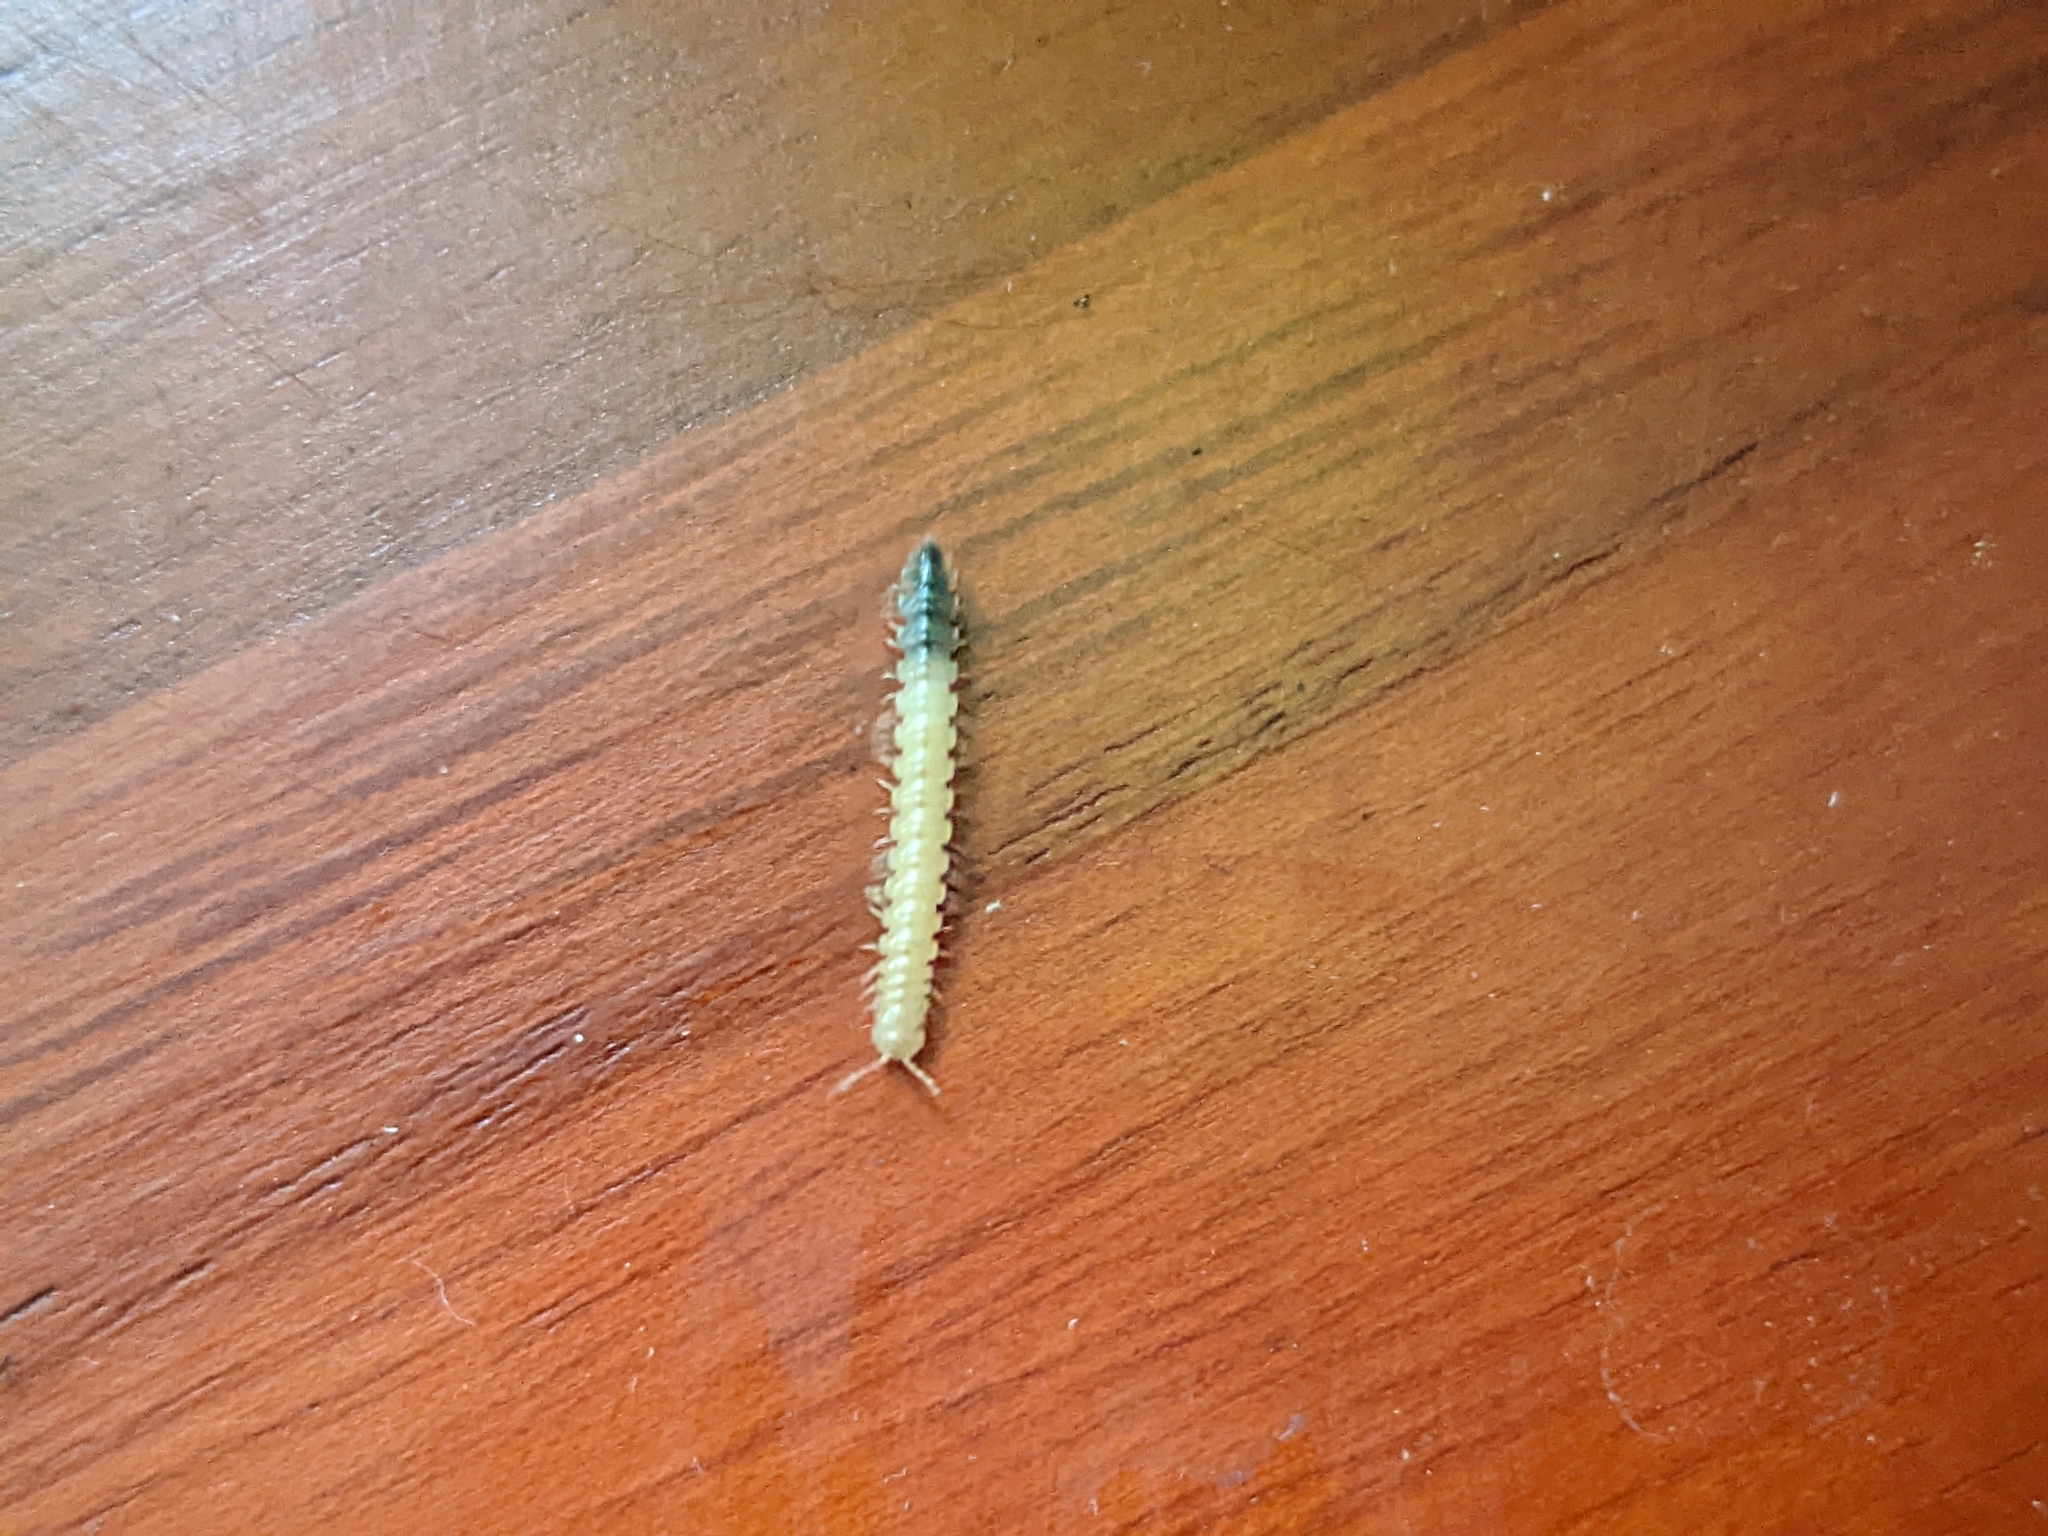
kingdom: Animalia
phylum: Arthropoda
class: Diplopoda
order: Polydesmida
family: Paradoxosomatidae
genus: Oxidus
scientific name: Oxidus gracilis
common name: Greenhouse millipede
